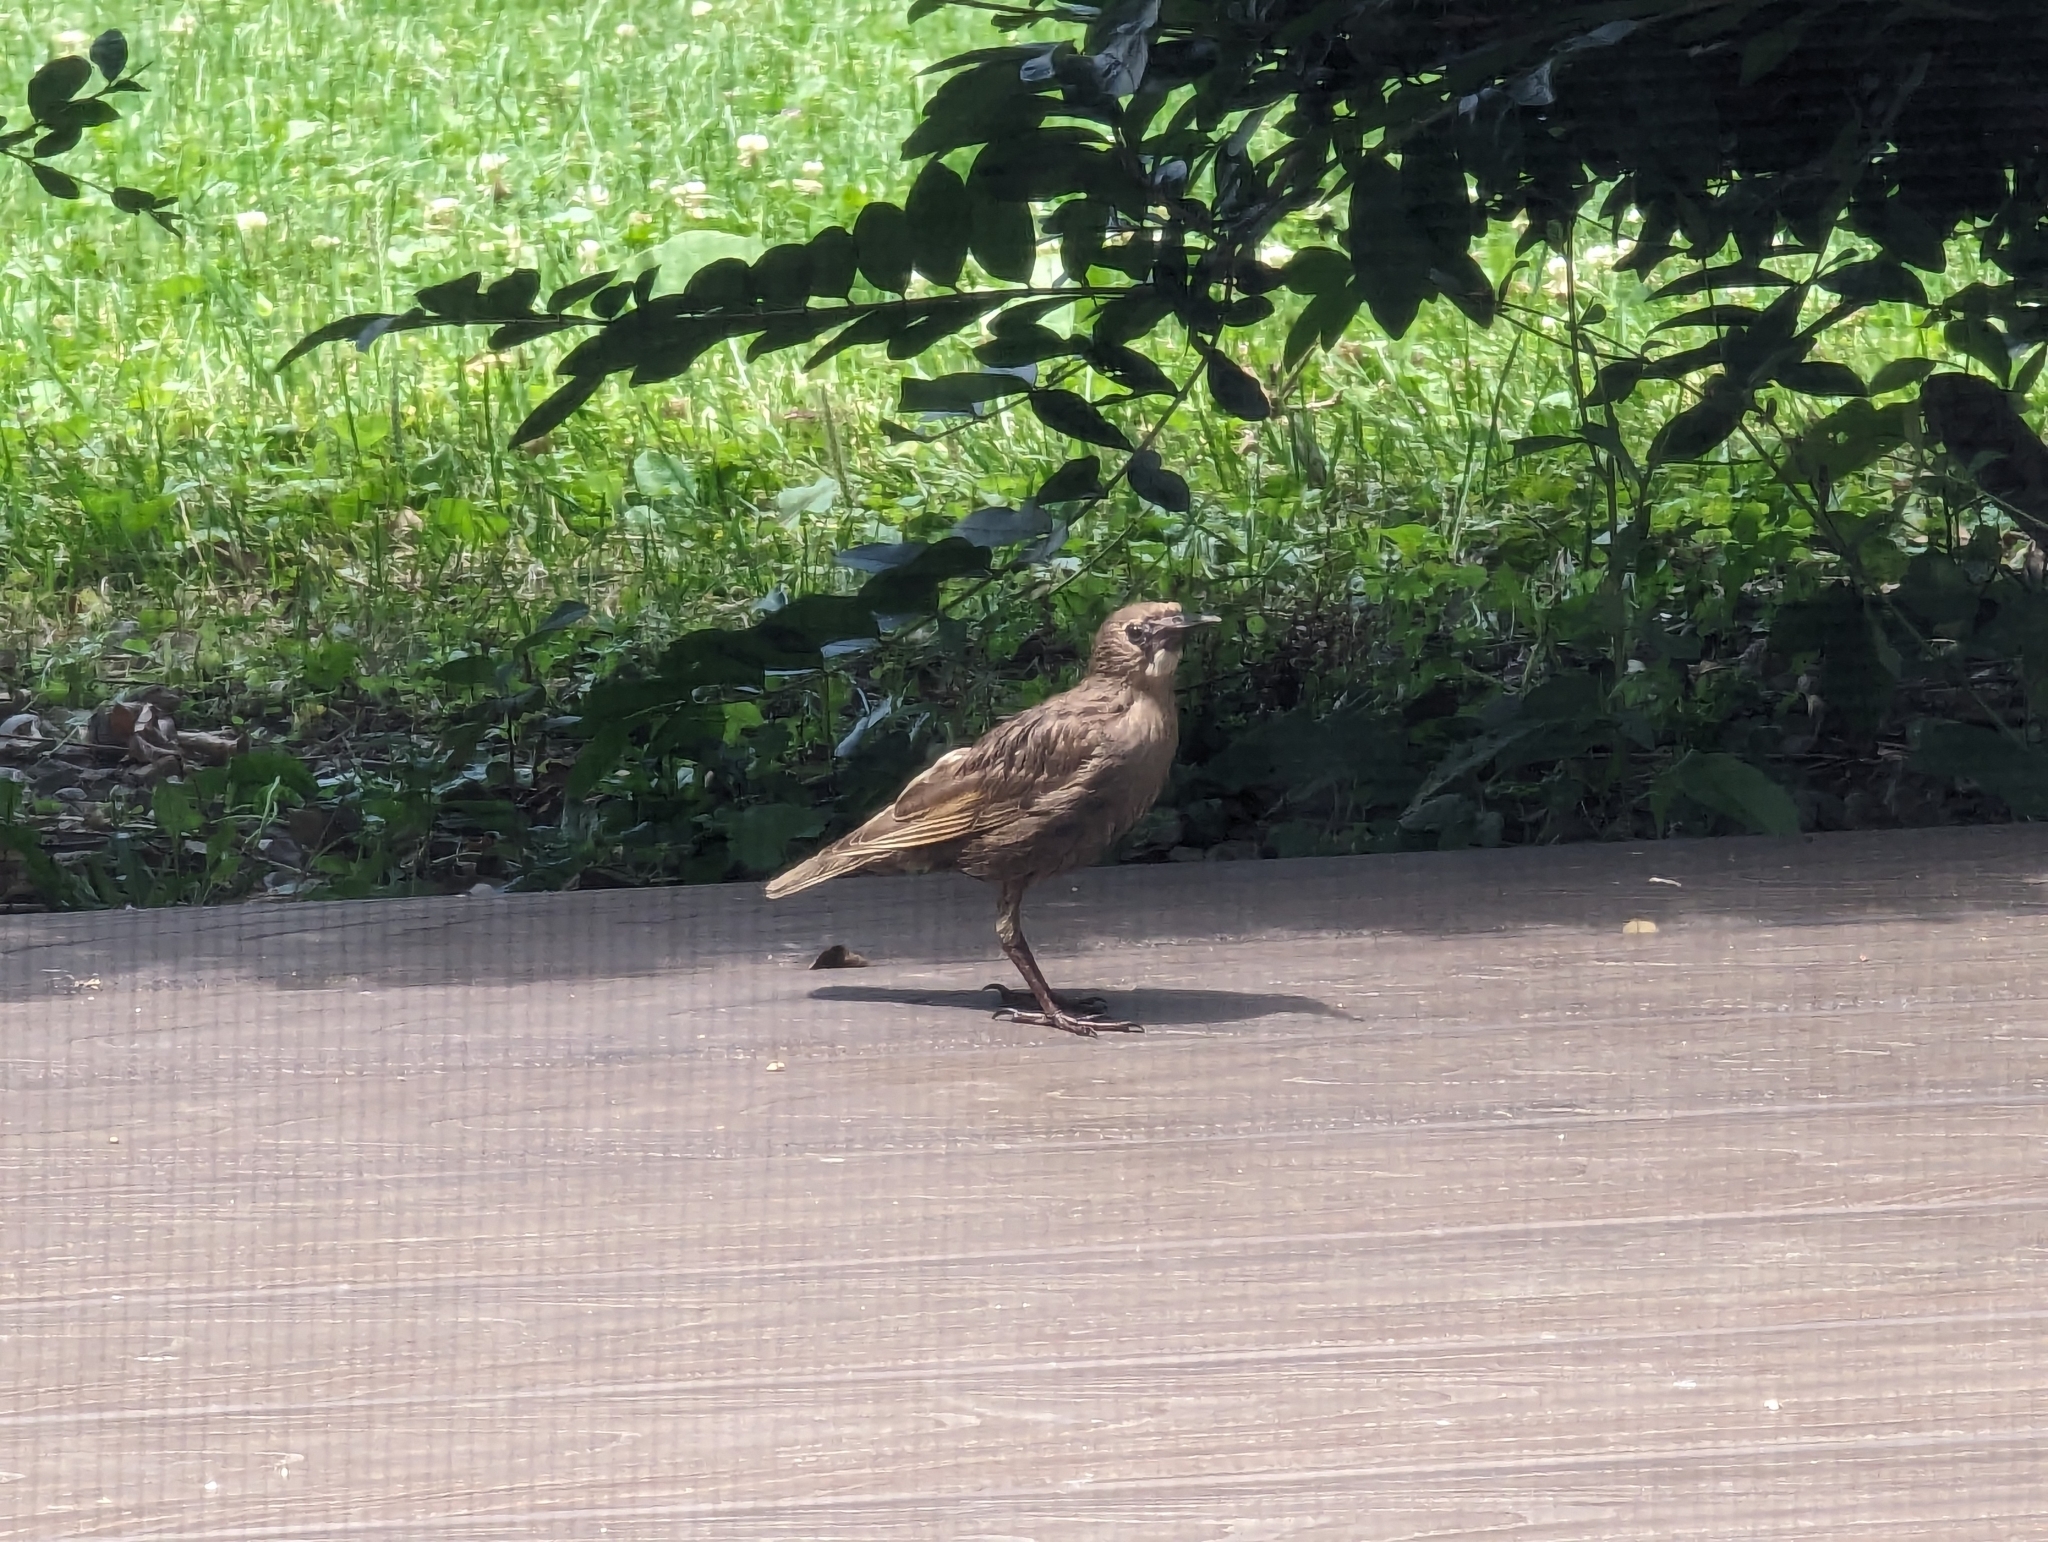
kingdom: Animalia
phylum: Chordata
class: Aves
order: Passeriformes
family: Sturnidae
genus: Sturnus
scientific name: Sturnus vulgaris
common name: Common starling
